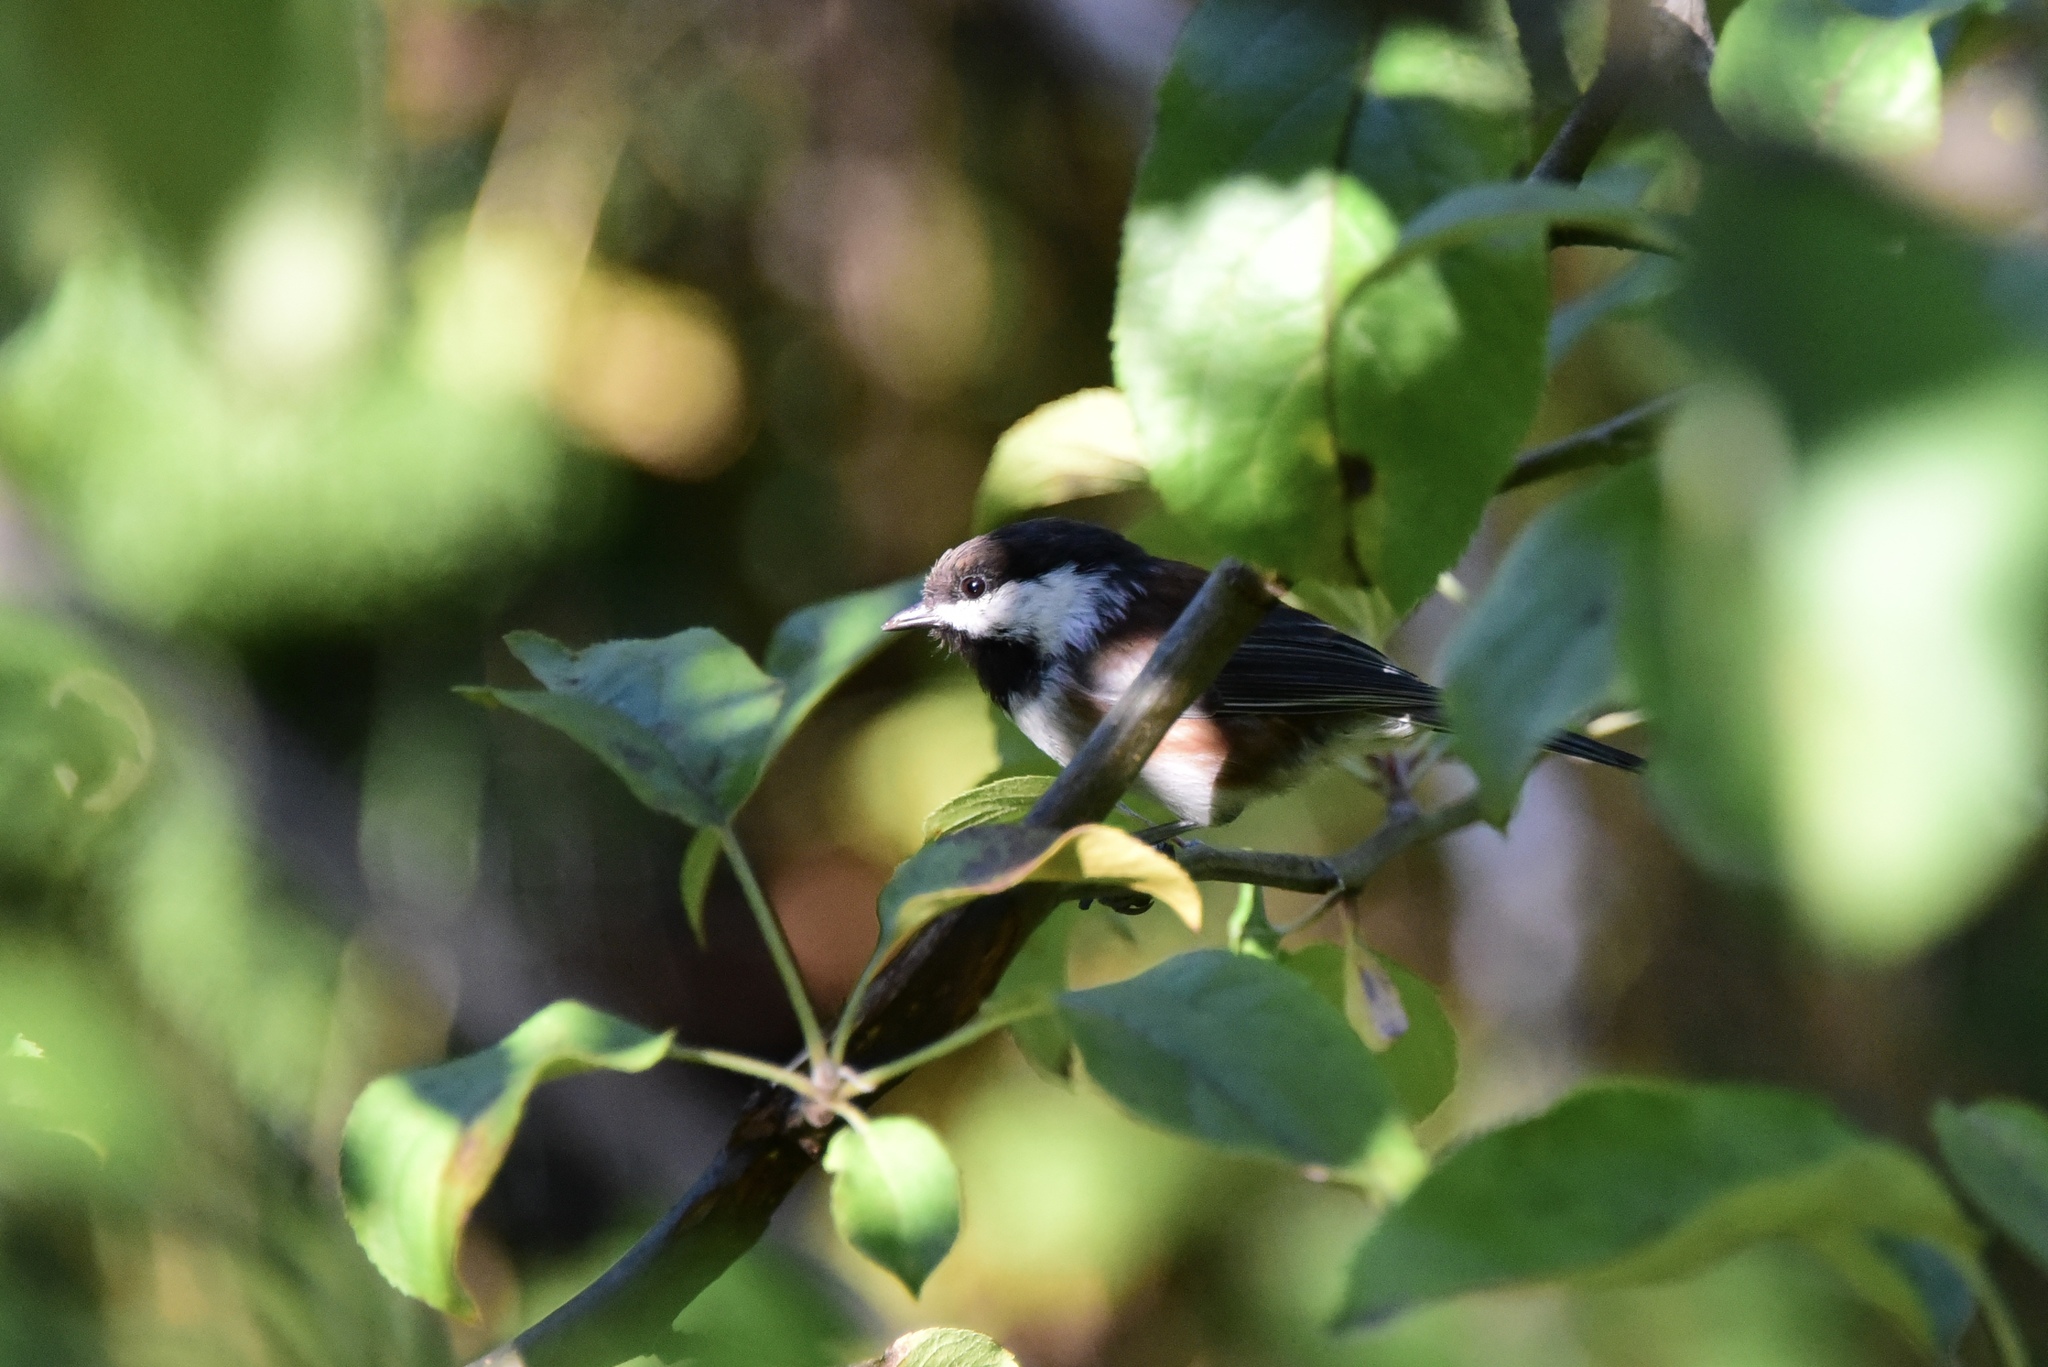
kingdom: Animalia
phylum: Chordata
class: Aves
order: Passeriformes
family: Paridae
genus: Poecile
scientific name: Poecile rufescens
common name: Chestnut-backed chickadee
